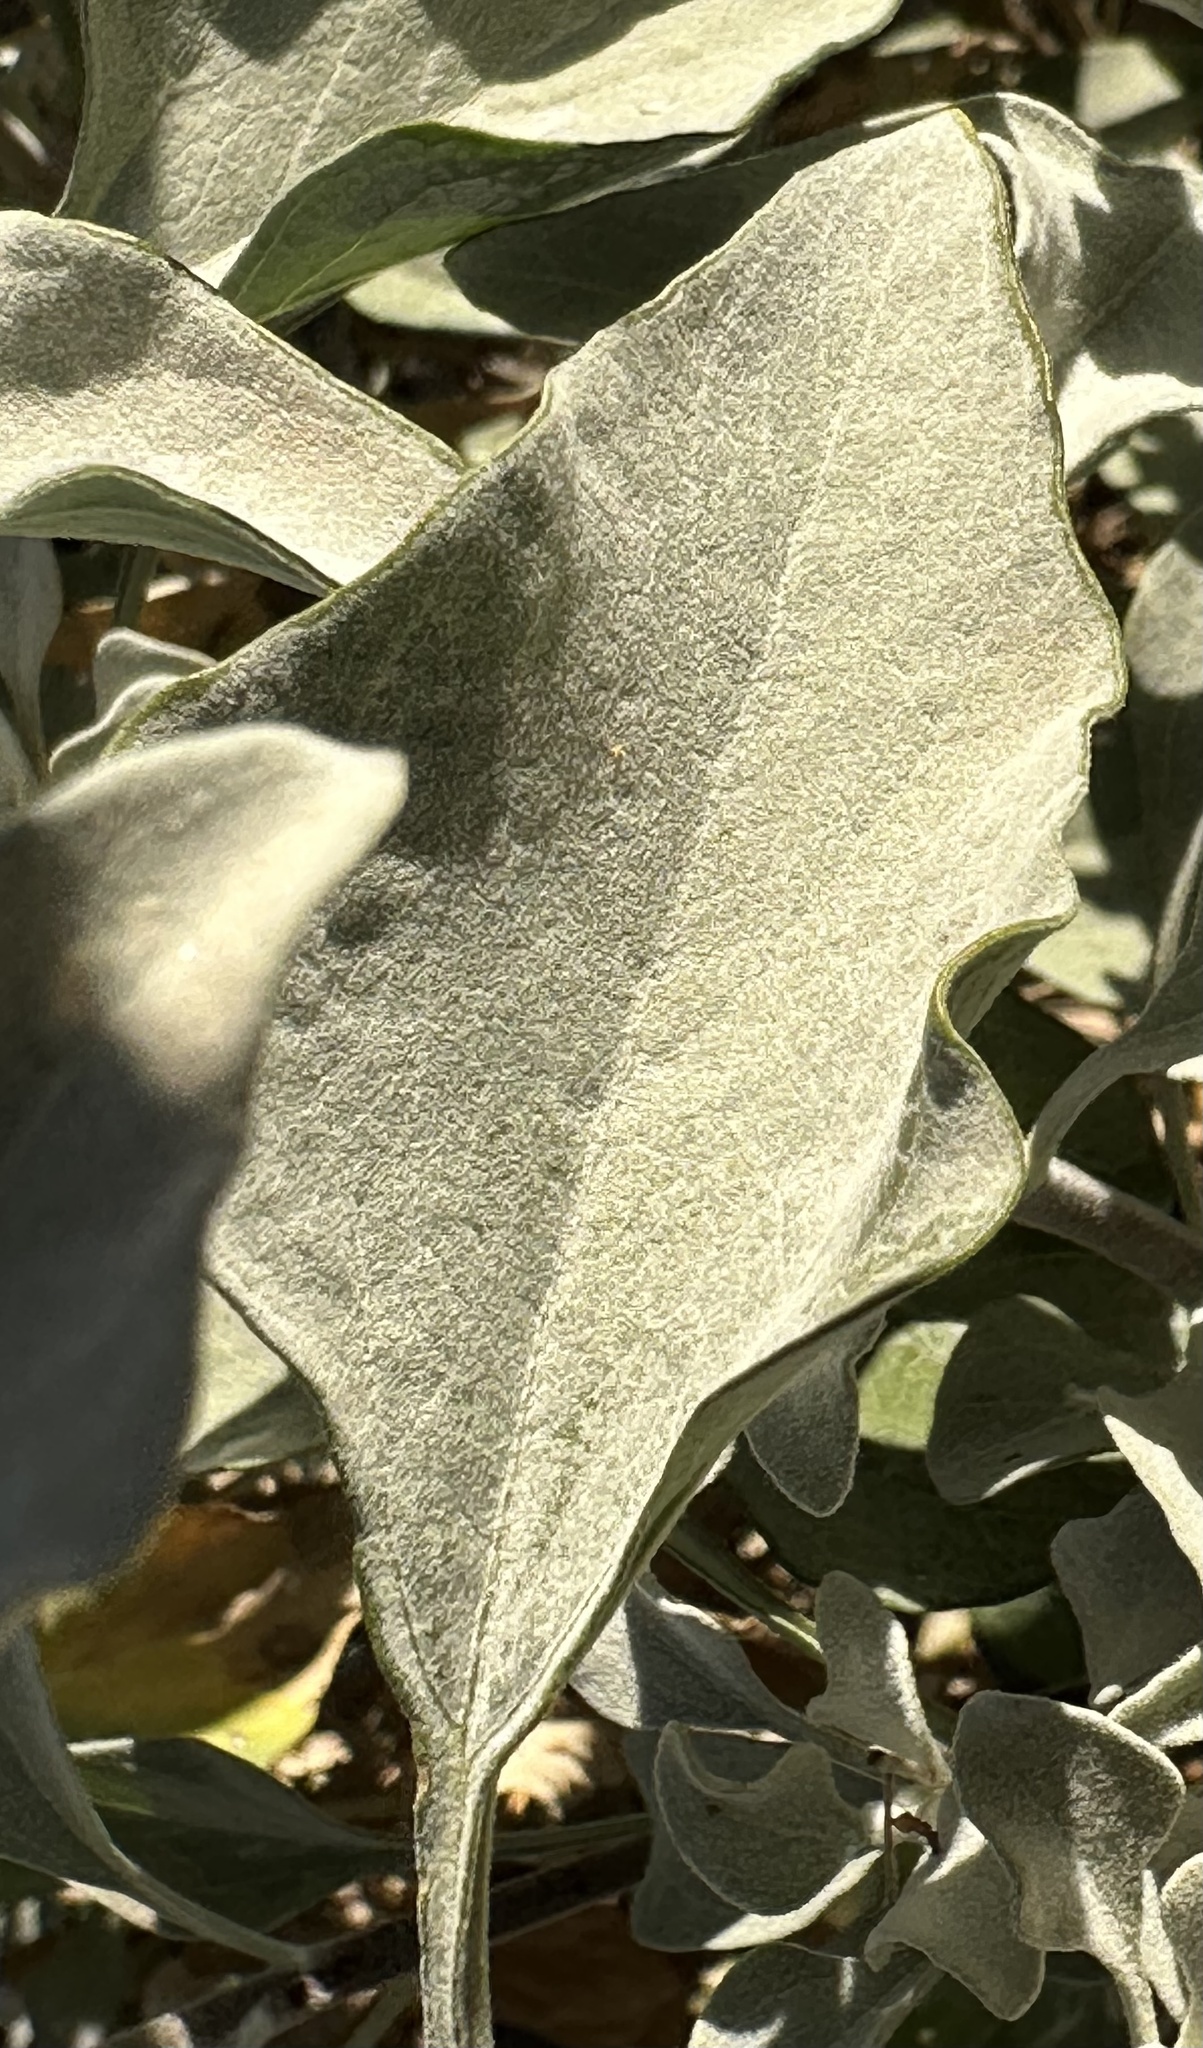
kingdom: Plantae
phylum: Tracheophyta
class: Magnoliopsida
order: Asterales
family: Asteraceae
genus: Encelia
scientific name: Encelia farinosa
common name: Brittlebush
